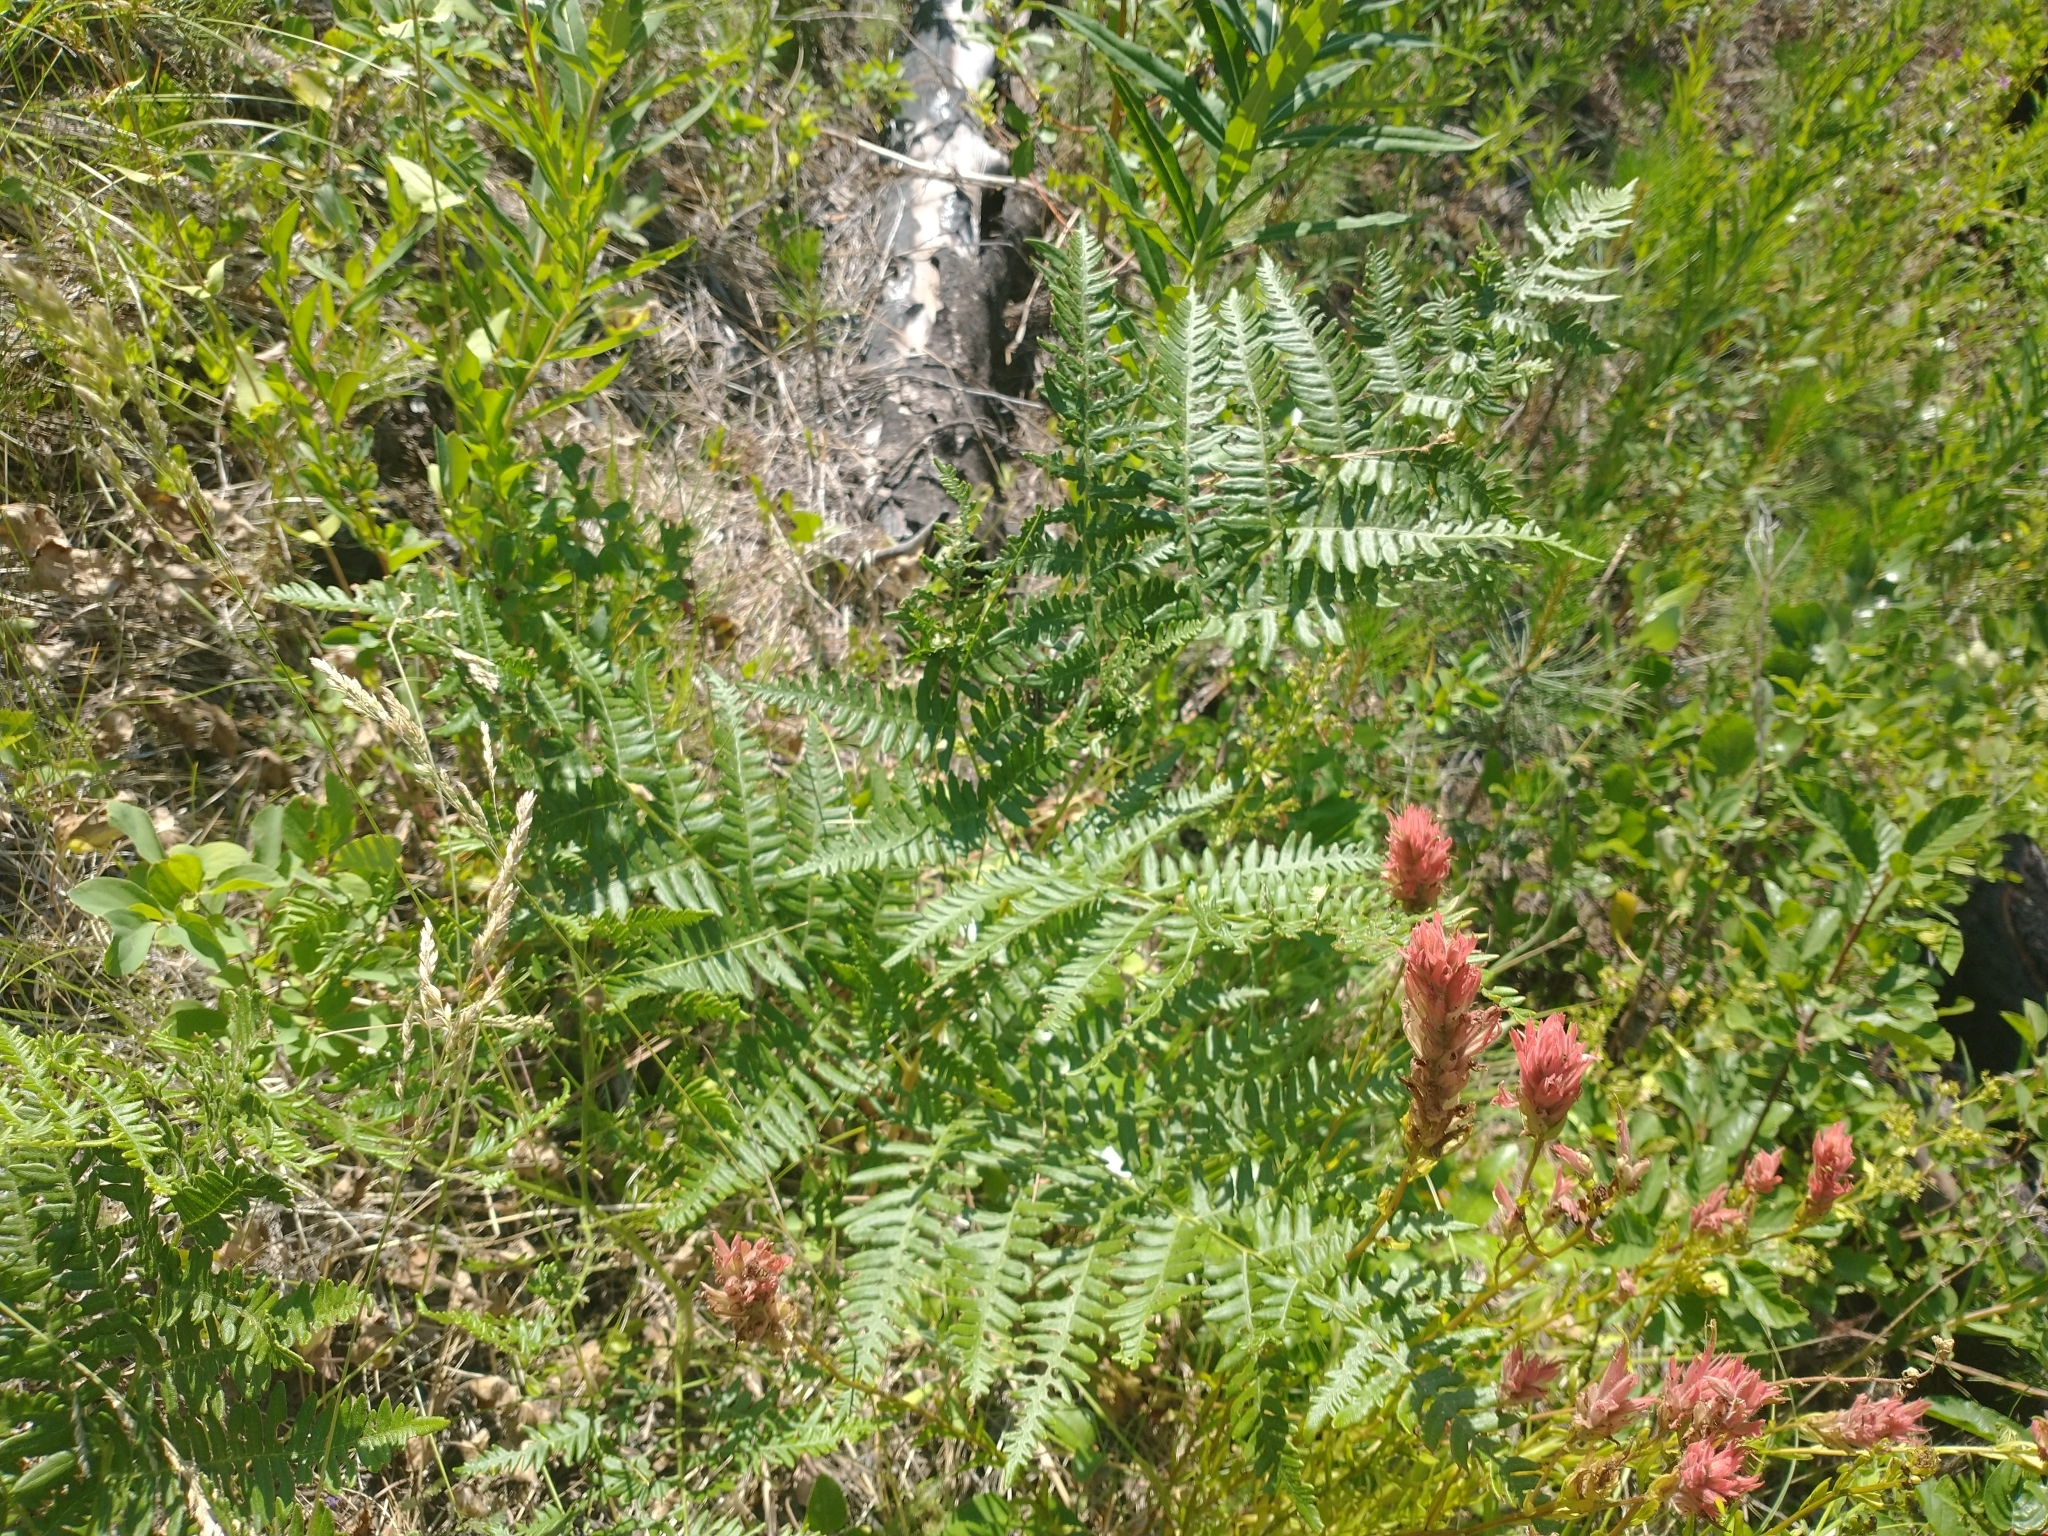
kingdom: Plantae
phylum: Tracheophyta
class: Polypodiopsida
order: Polypodiales
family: Dennstaedtiaceae
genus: Pteridium
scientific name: Pteridium aquilinum
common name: Bracken
